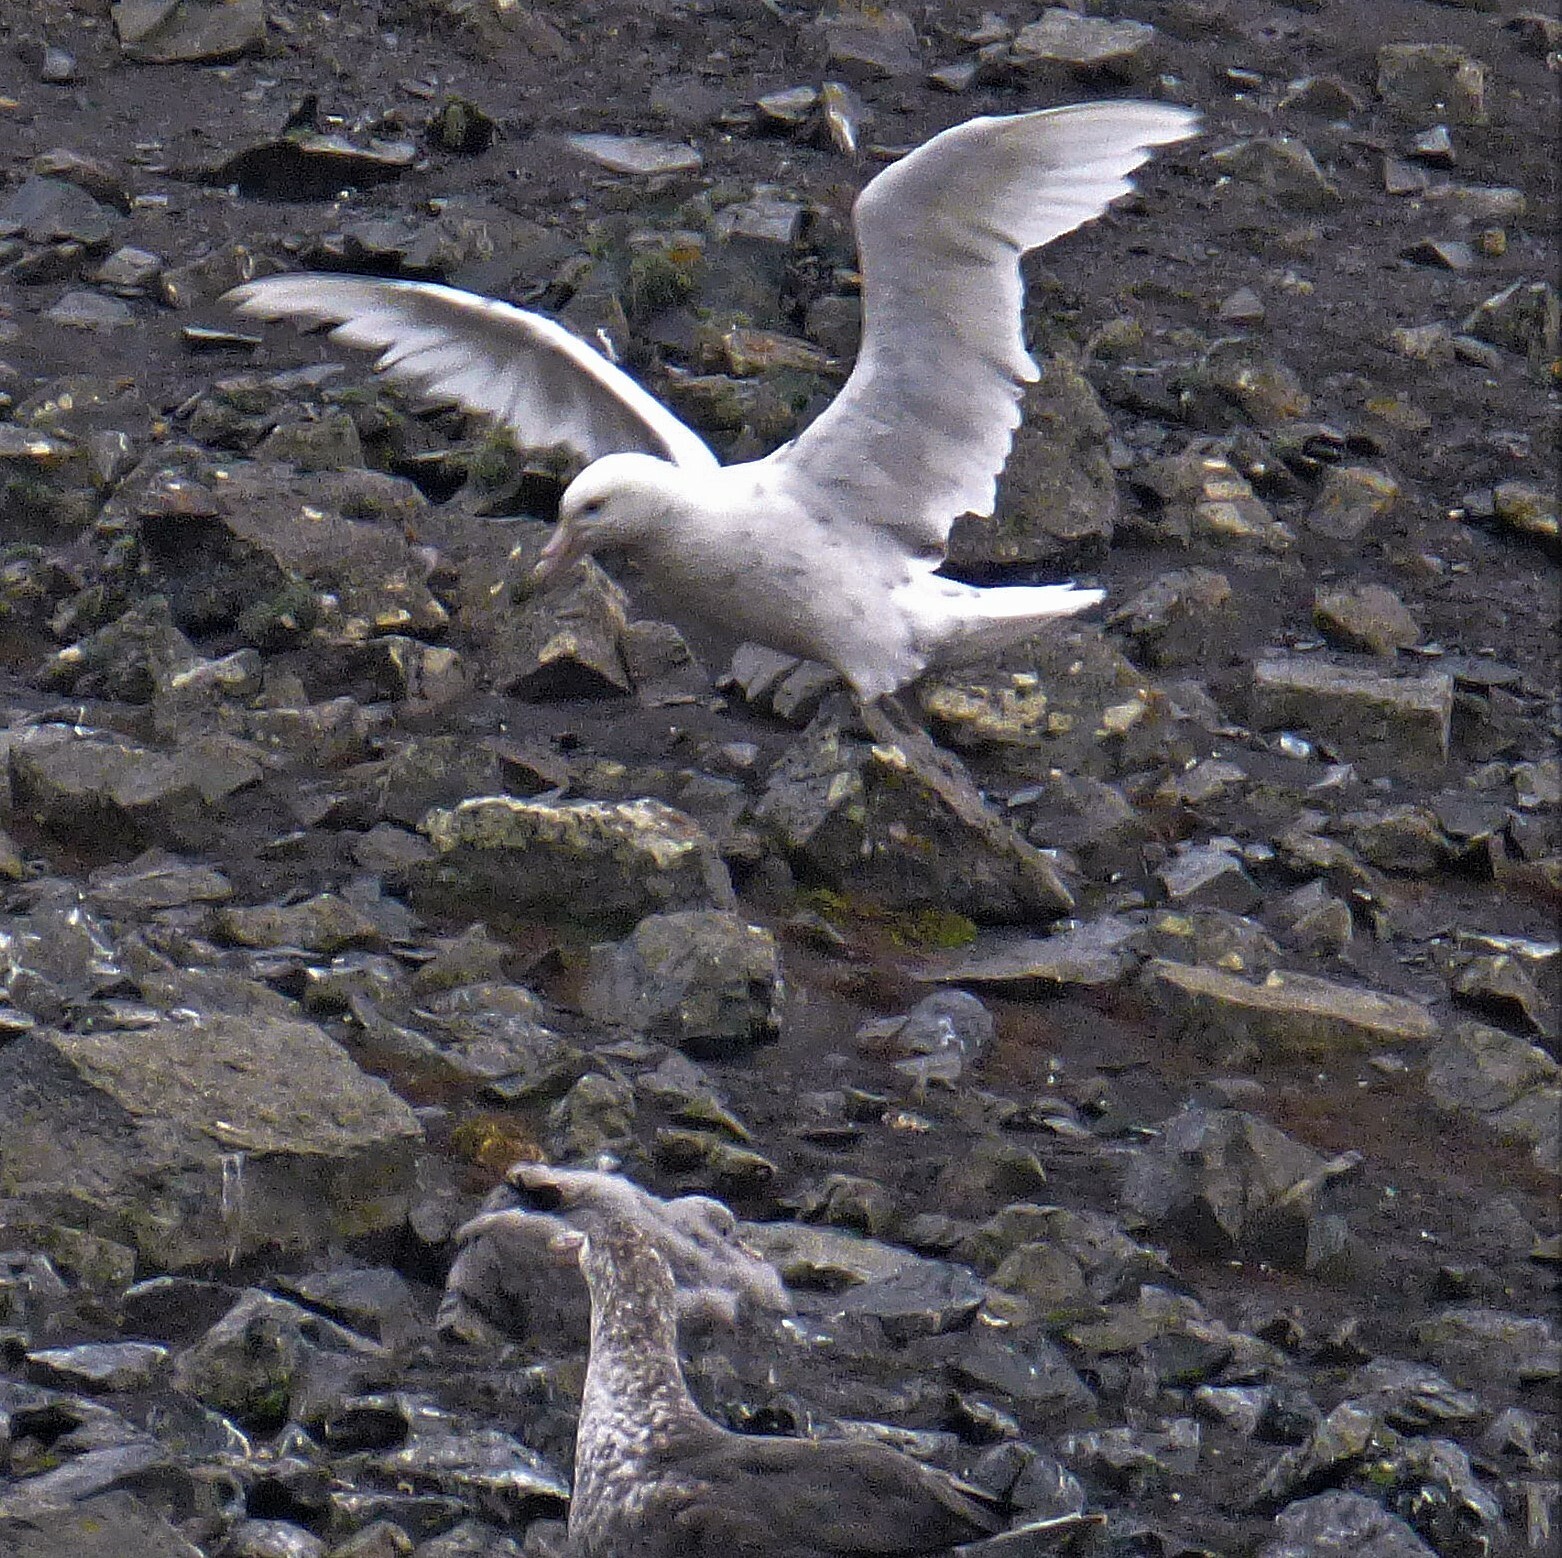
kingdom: Animalia
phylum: Chordata
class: Aves
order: Procellariiformes
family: Procellariidae
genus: Macronectes
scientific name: Macronectes giganteus
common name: Southern giant petrel
